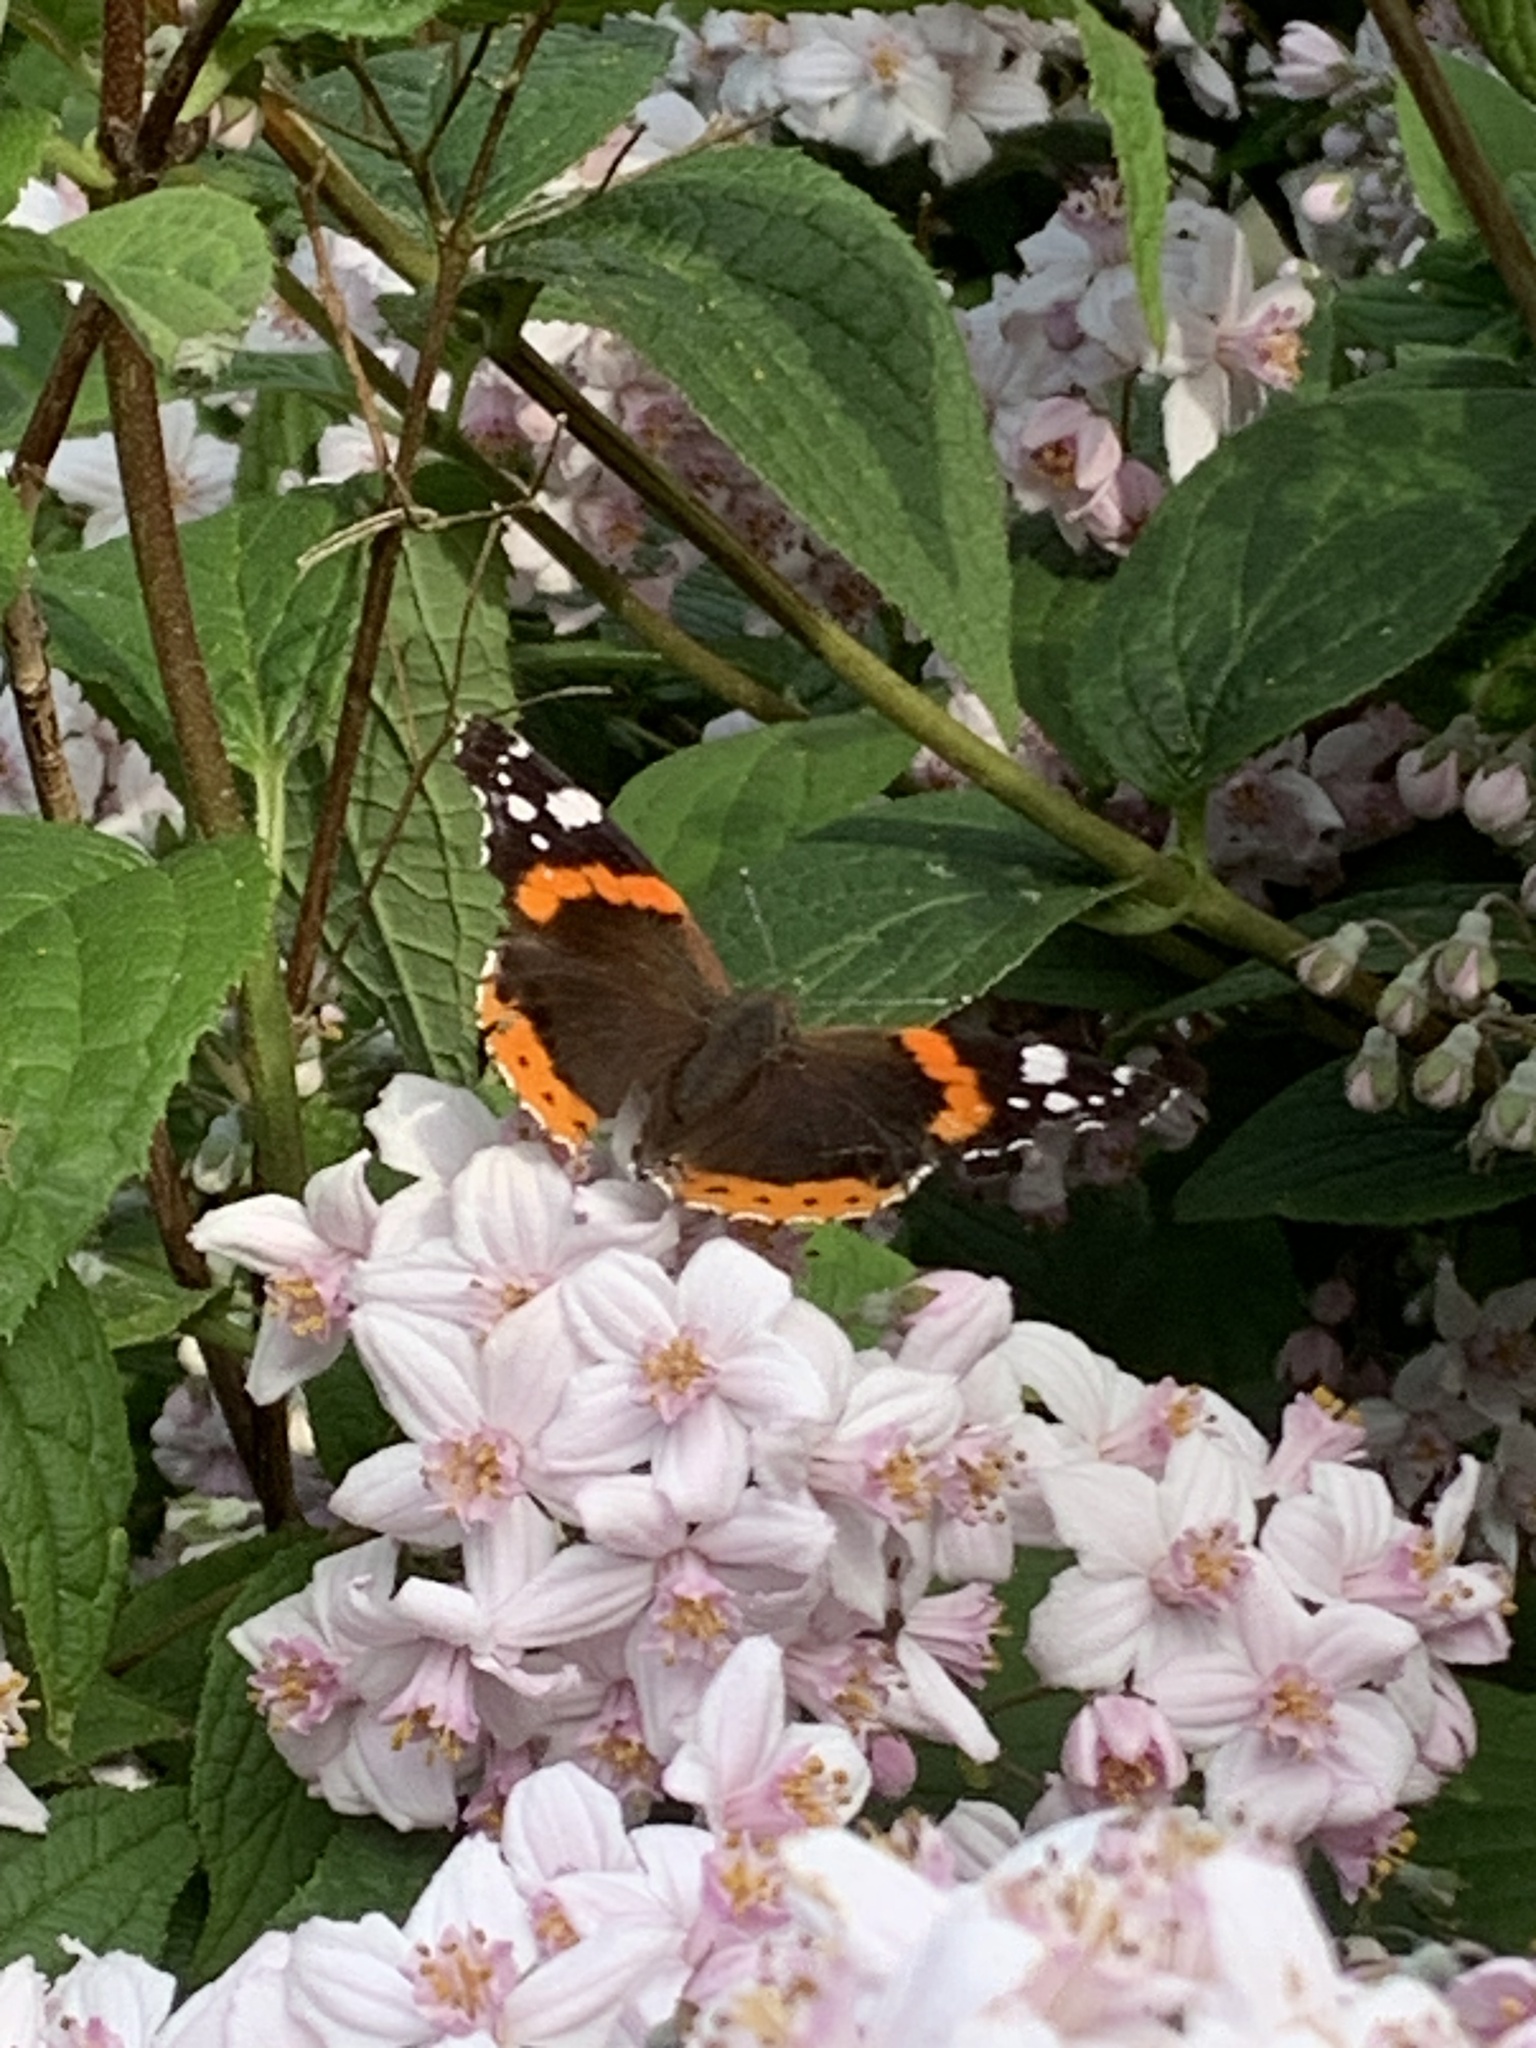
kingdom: Animalia
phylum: Arthropoda
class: Insecta
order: Lepidoptera
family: Nymphalidae
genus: Vanessa
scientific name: Vanessa atalanta
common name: Red admiral
